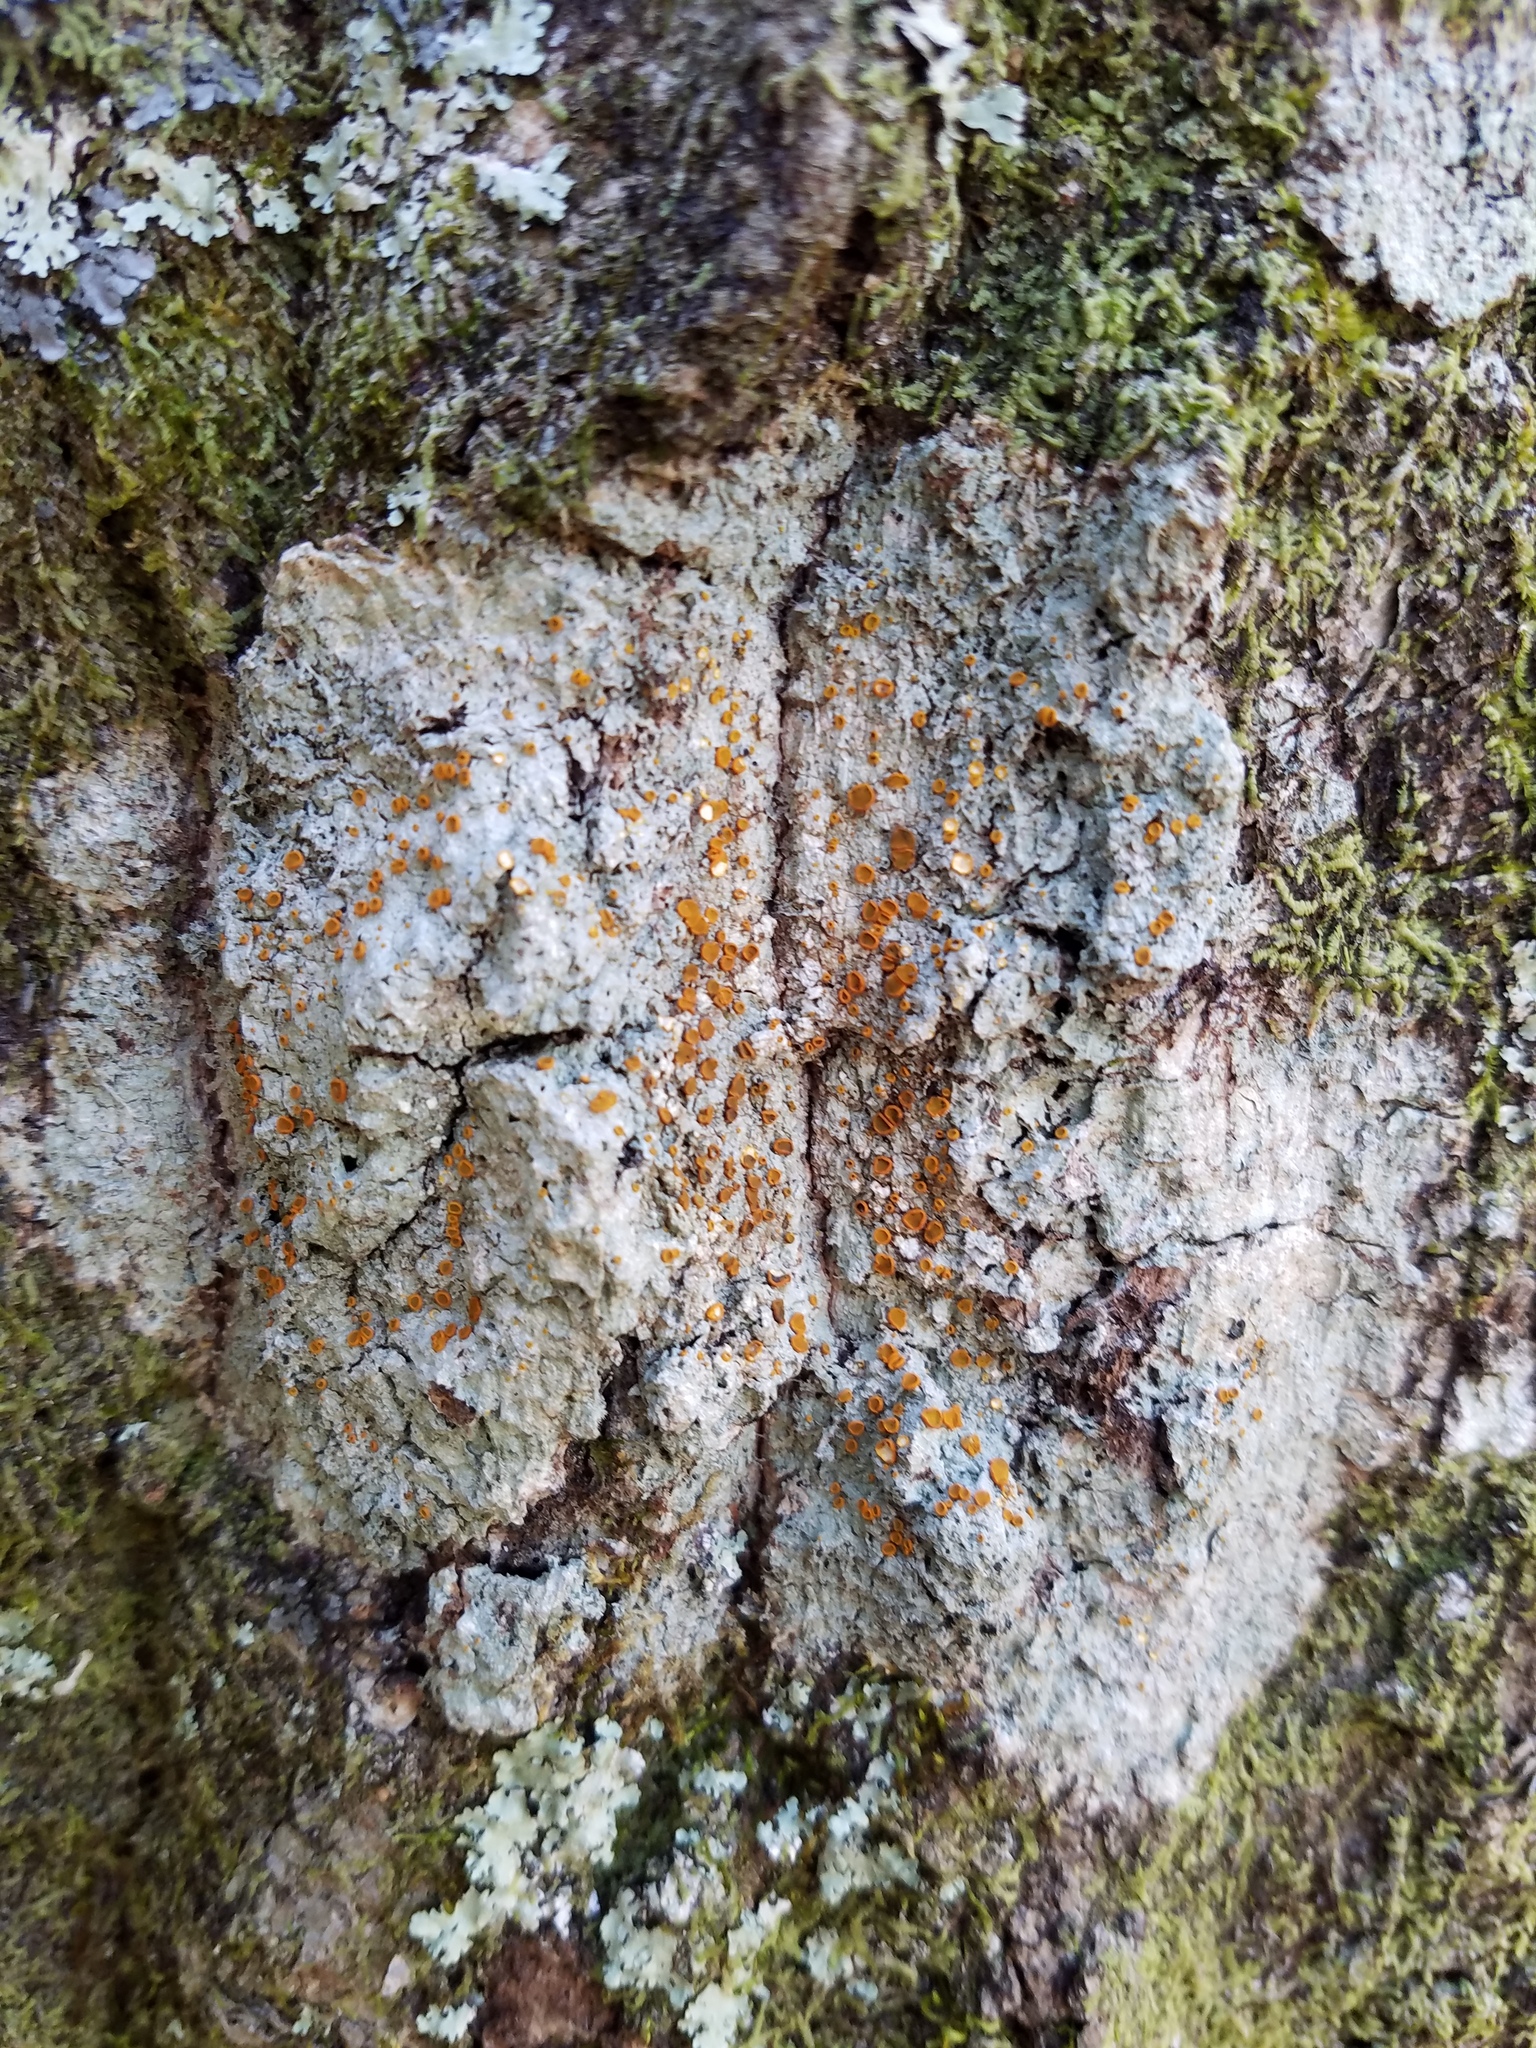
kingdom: Fungi
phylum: Ascomycota
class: Lecanoromycetes
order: Teloschistales
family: Brigantiaeaceae
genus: Brigantiaea
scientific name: Brigantiaea leucoxantha
